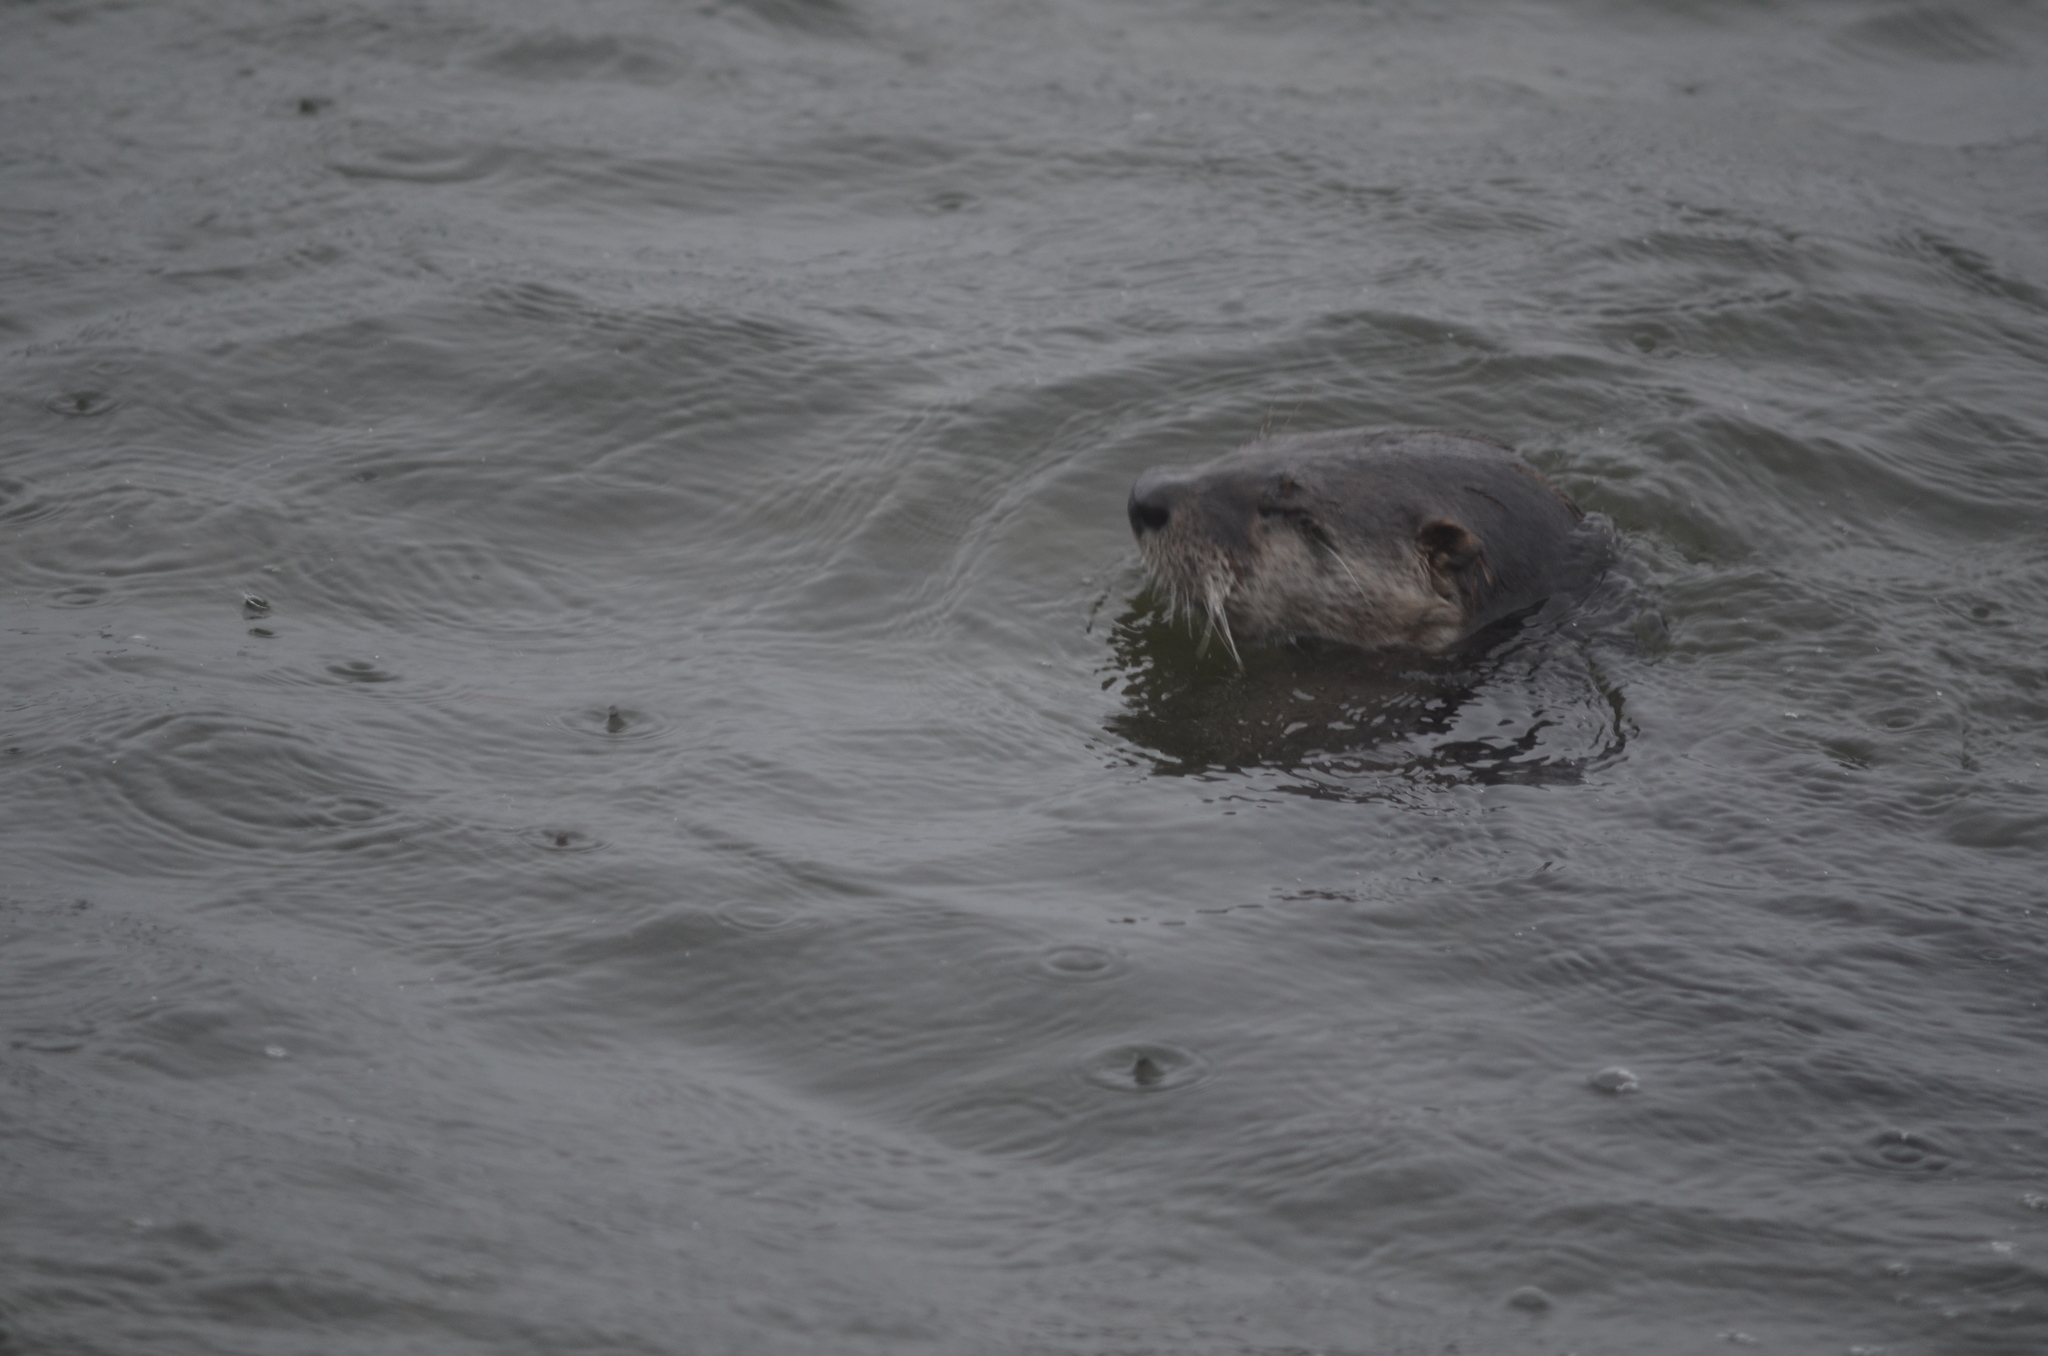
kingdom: Animalia
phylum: Chordata
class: Mammalia
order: Carnivora
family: Mustelidae
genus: Lontra
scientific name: Lontra canadensis
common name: North american river otter
